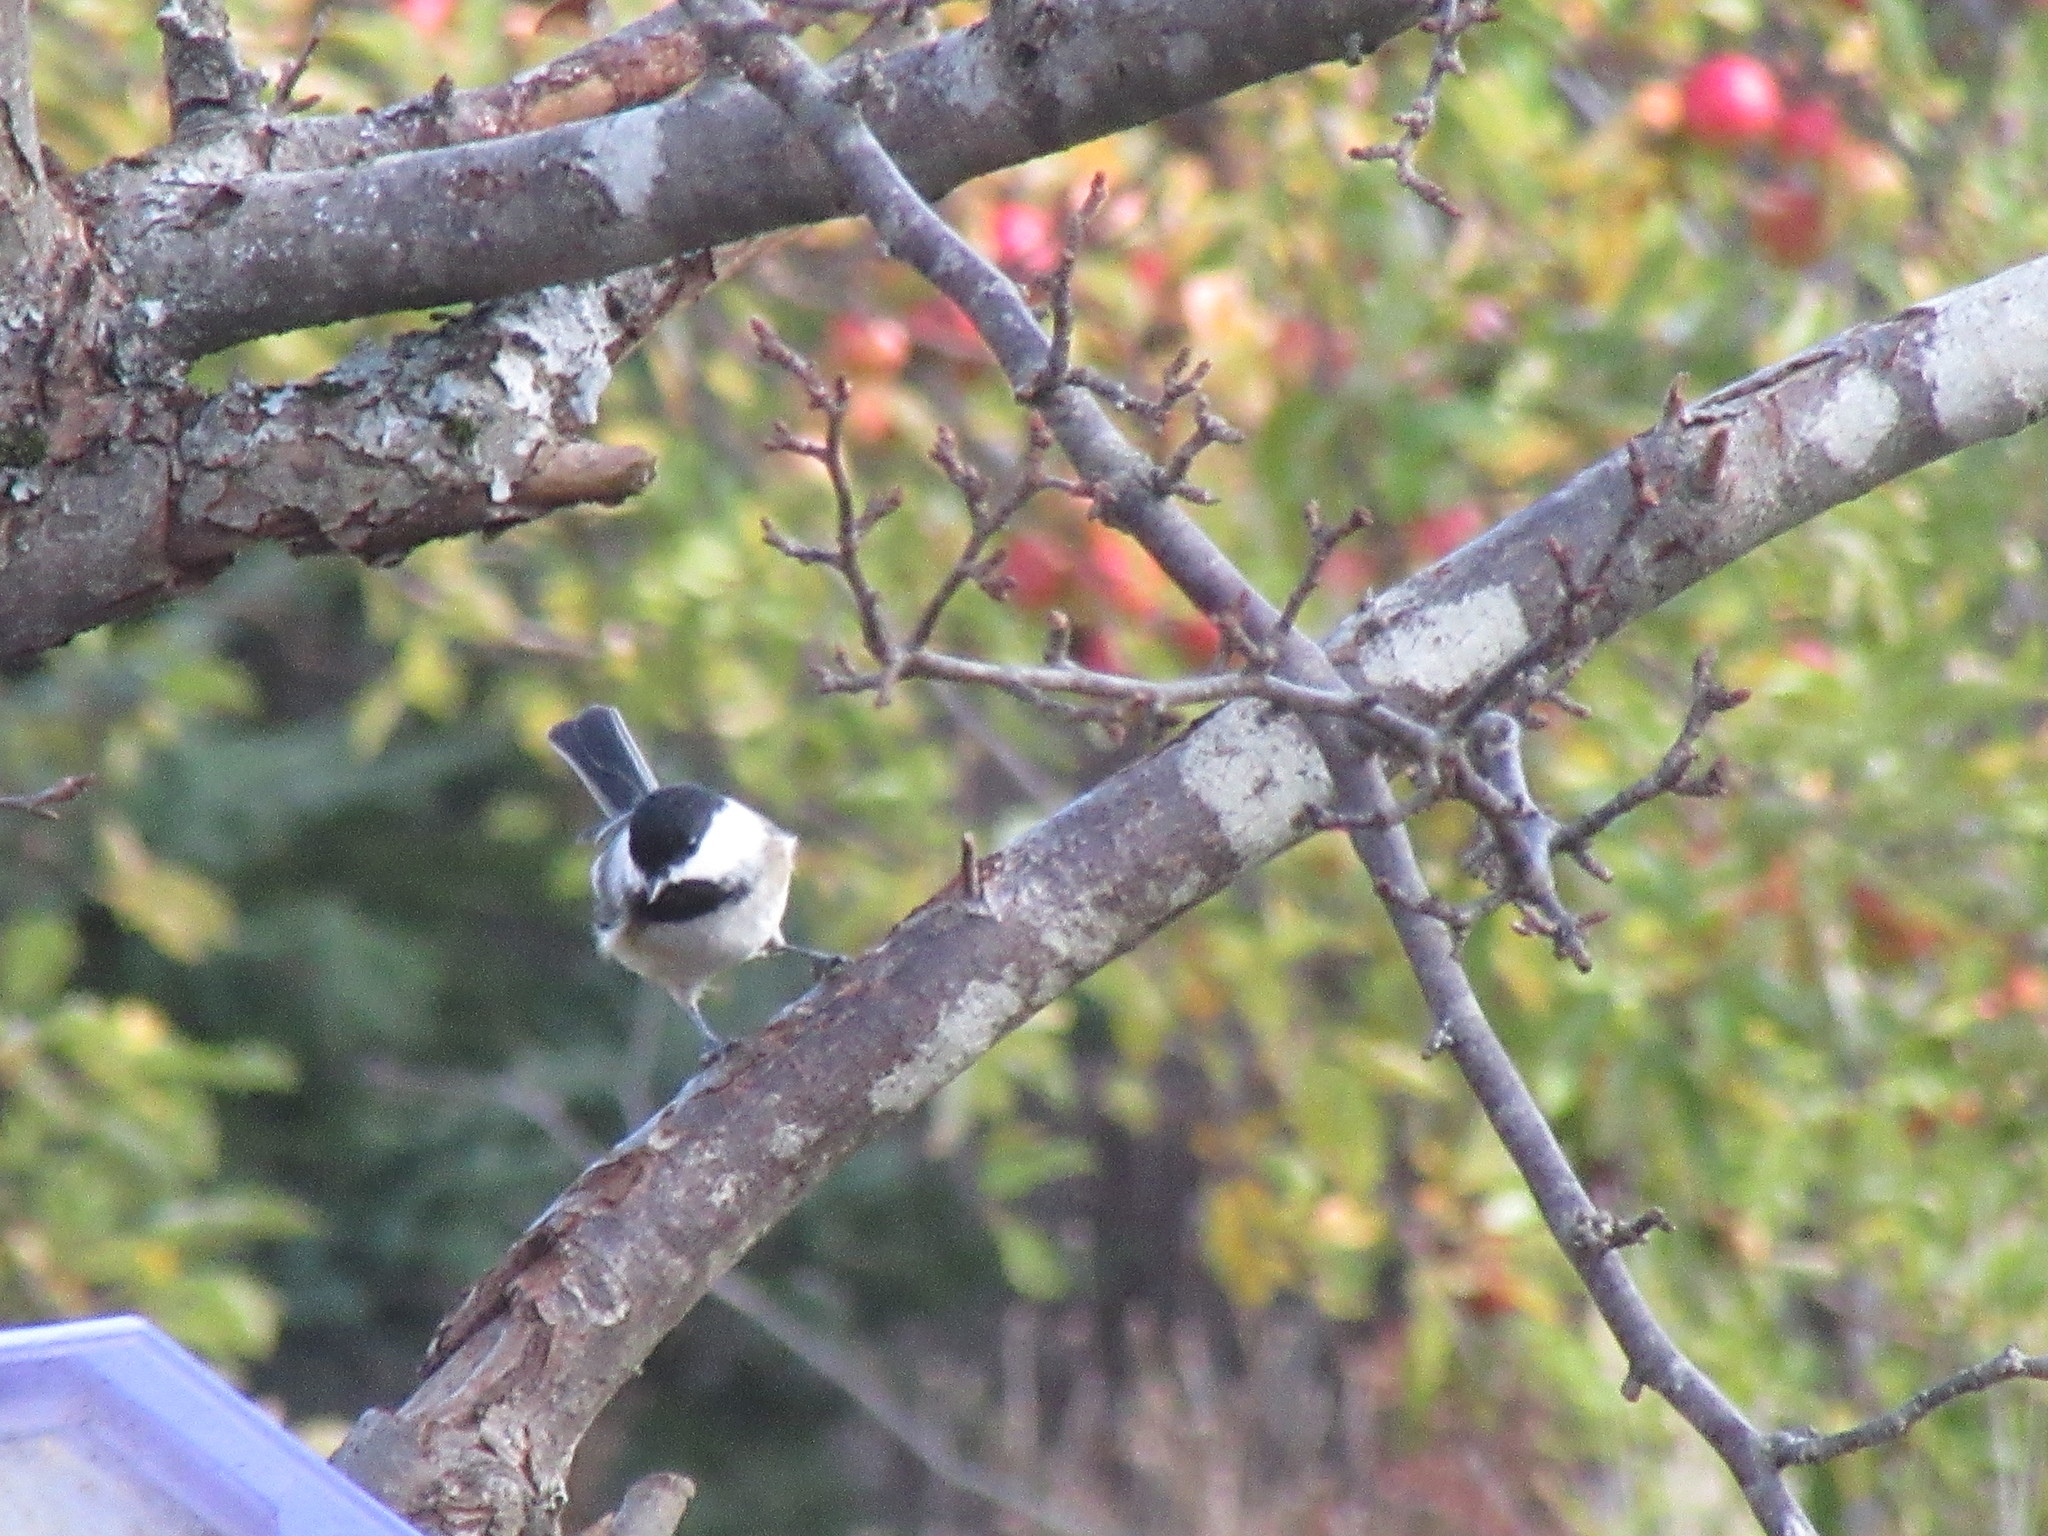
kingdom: Animalia
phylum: Chordata
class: Aves
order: Passeriformes
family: Paridae
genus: Poecile
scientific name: Poecile atricapillus
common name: Black-capped chickadee
